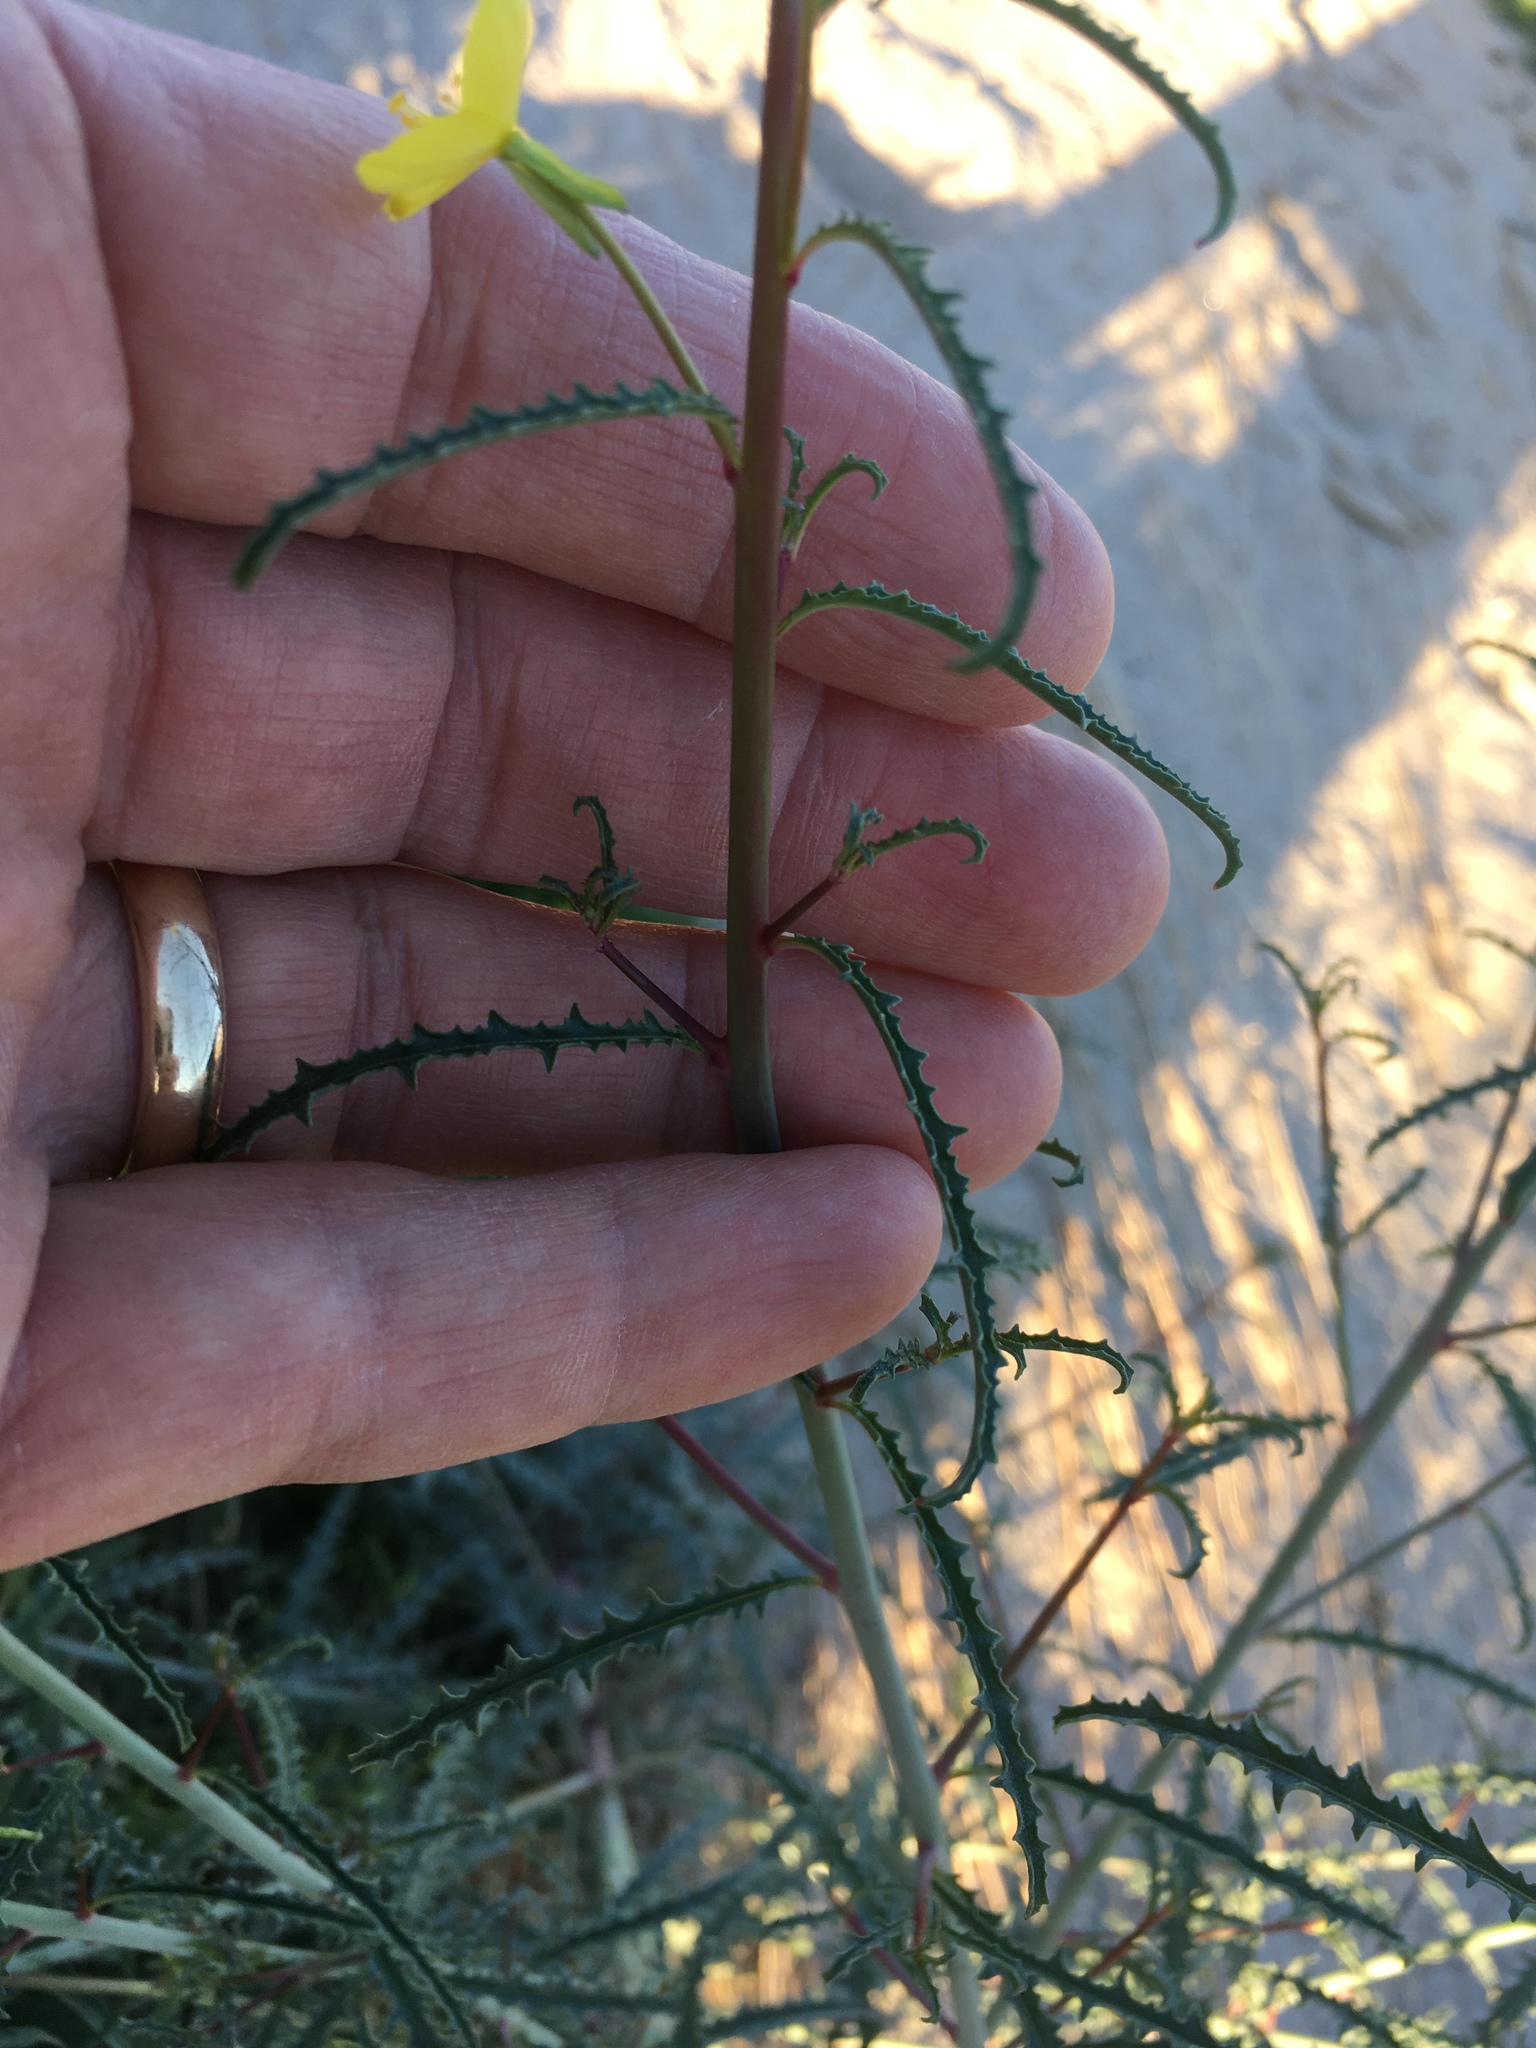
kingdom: Plantae
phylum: Tracheophyta
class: Magnoliopsida
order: Myrtales
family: Onagraceae
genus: Eulobus
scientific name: Eulobus californicus
